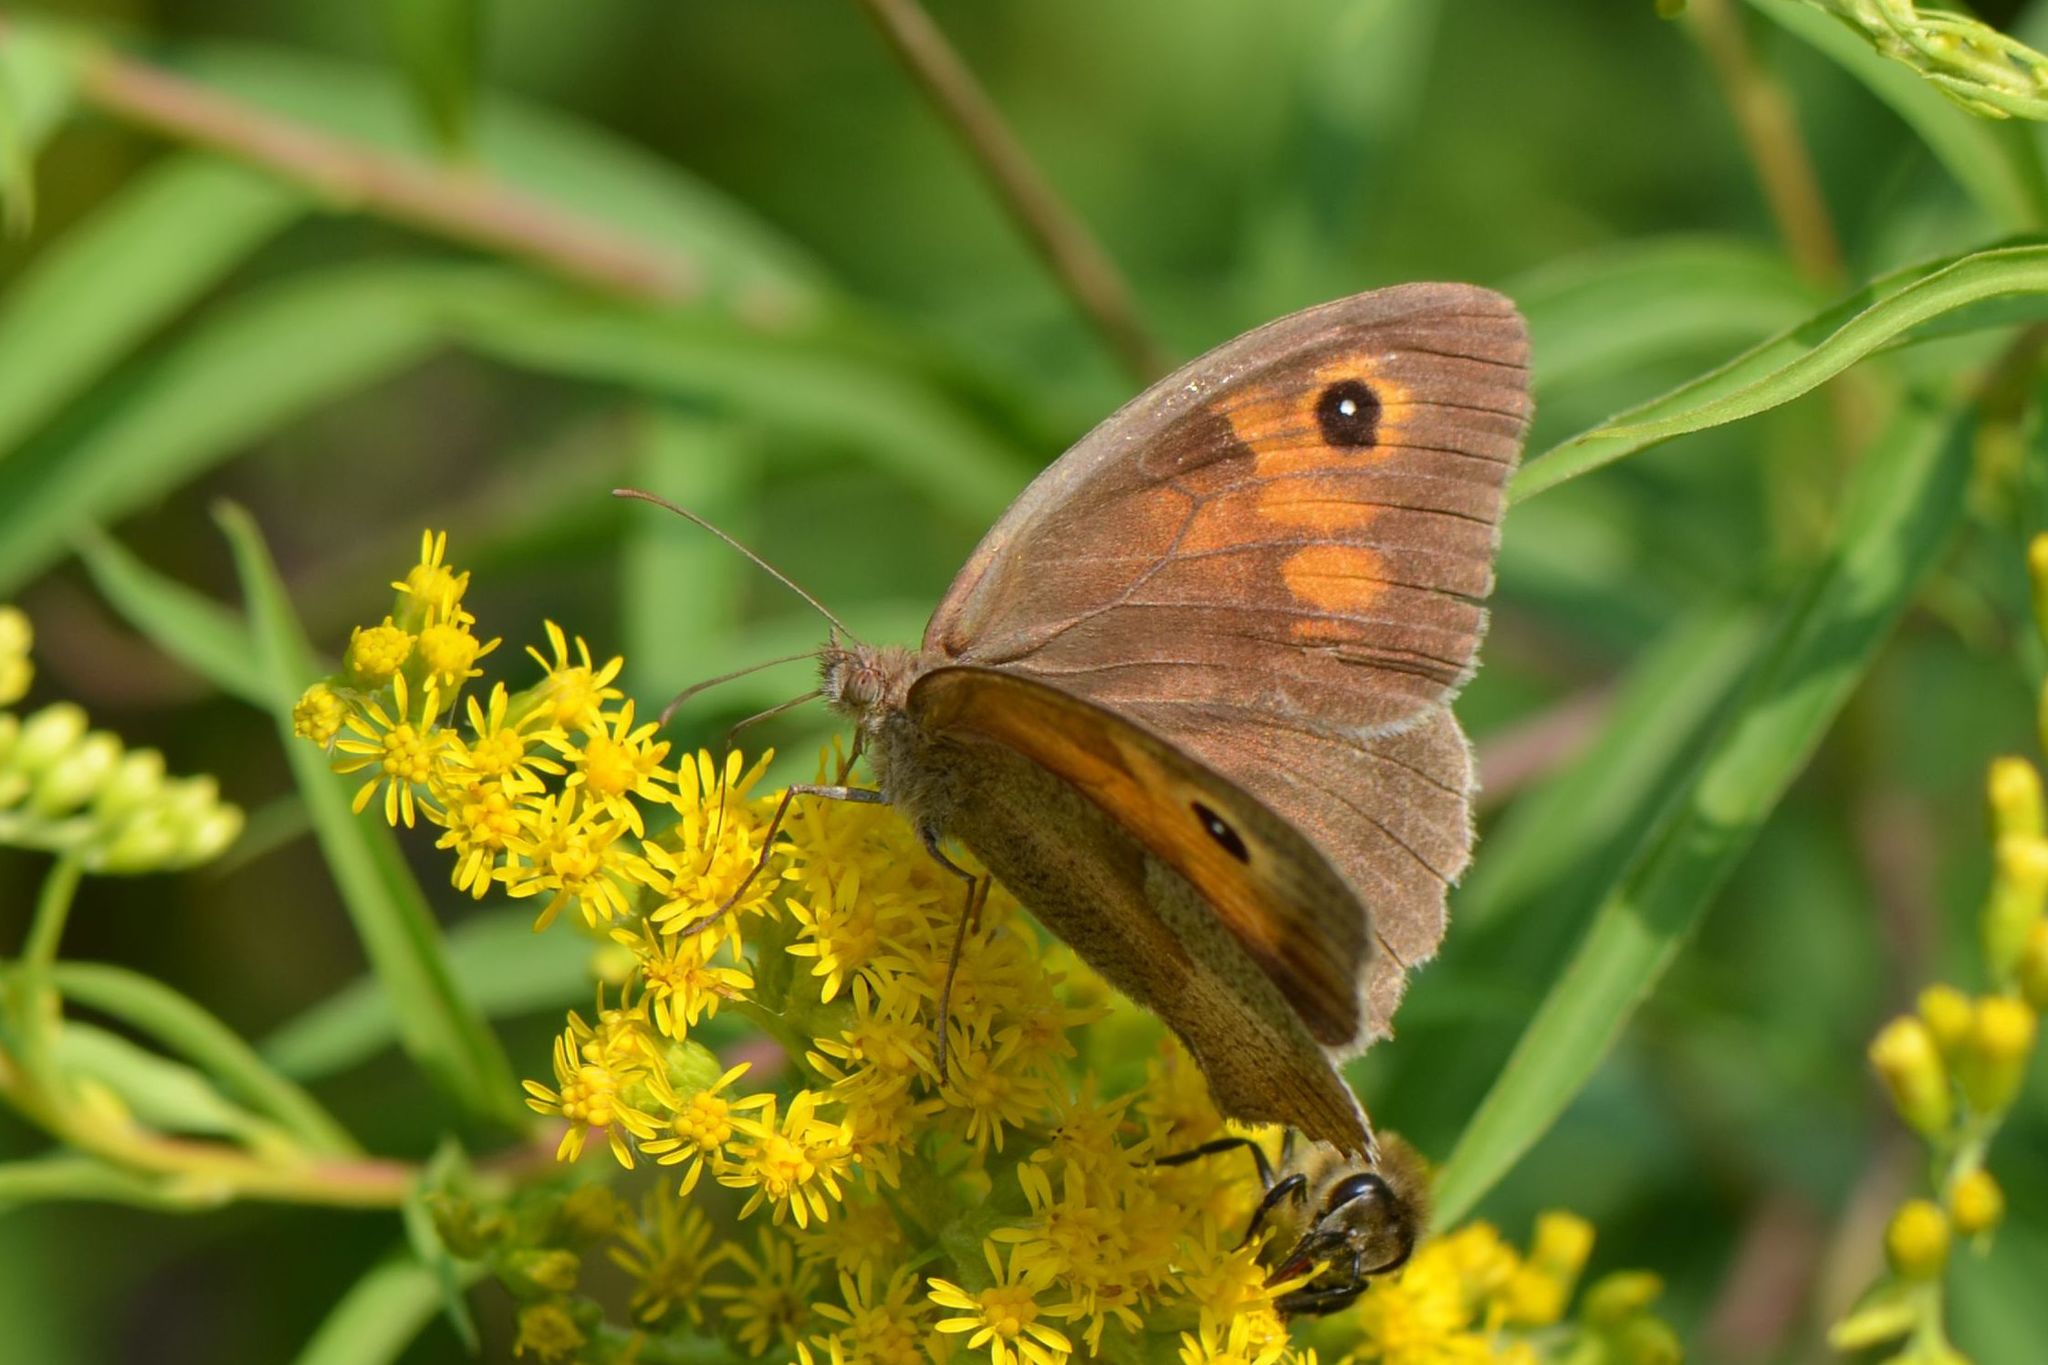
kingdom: Animalia
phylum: Arthropoda
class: Insecta
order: Lepidoptera
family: Nymphalidae
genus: Maniola
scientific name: Maniola jurtina
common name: Meadow brown
